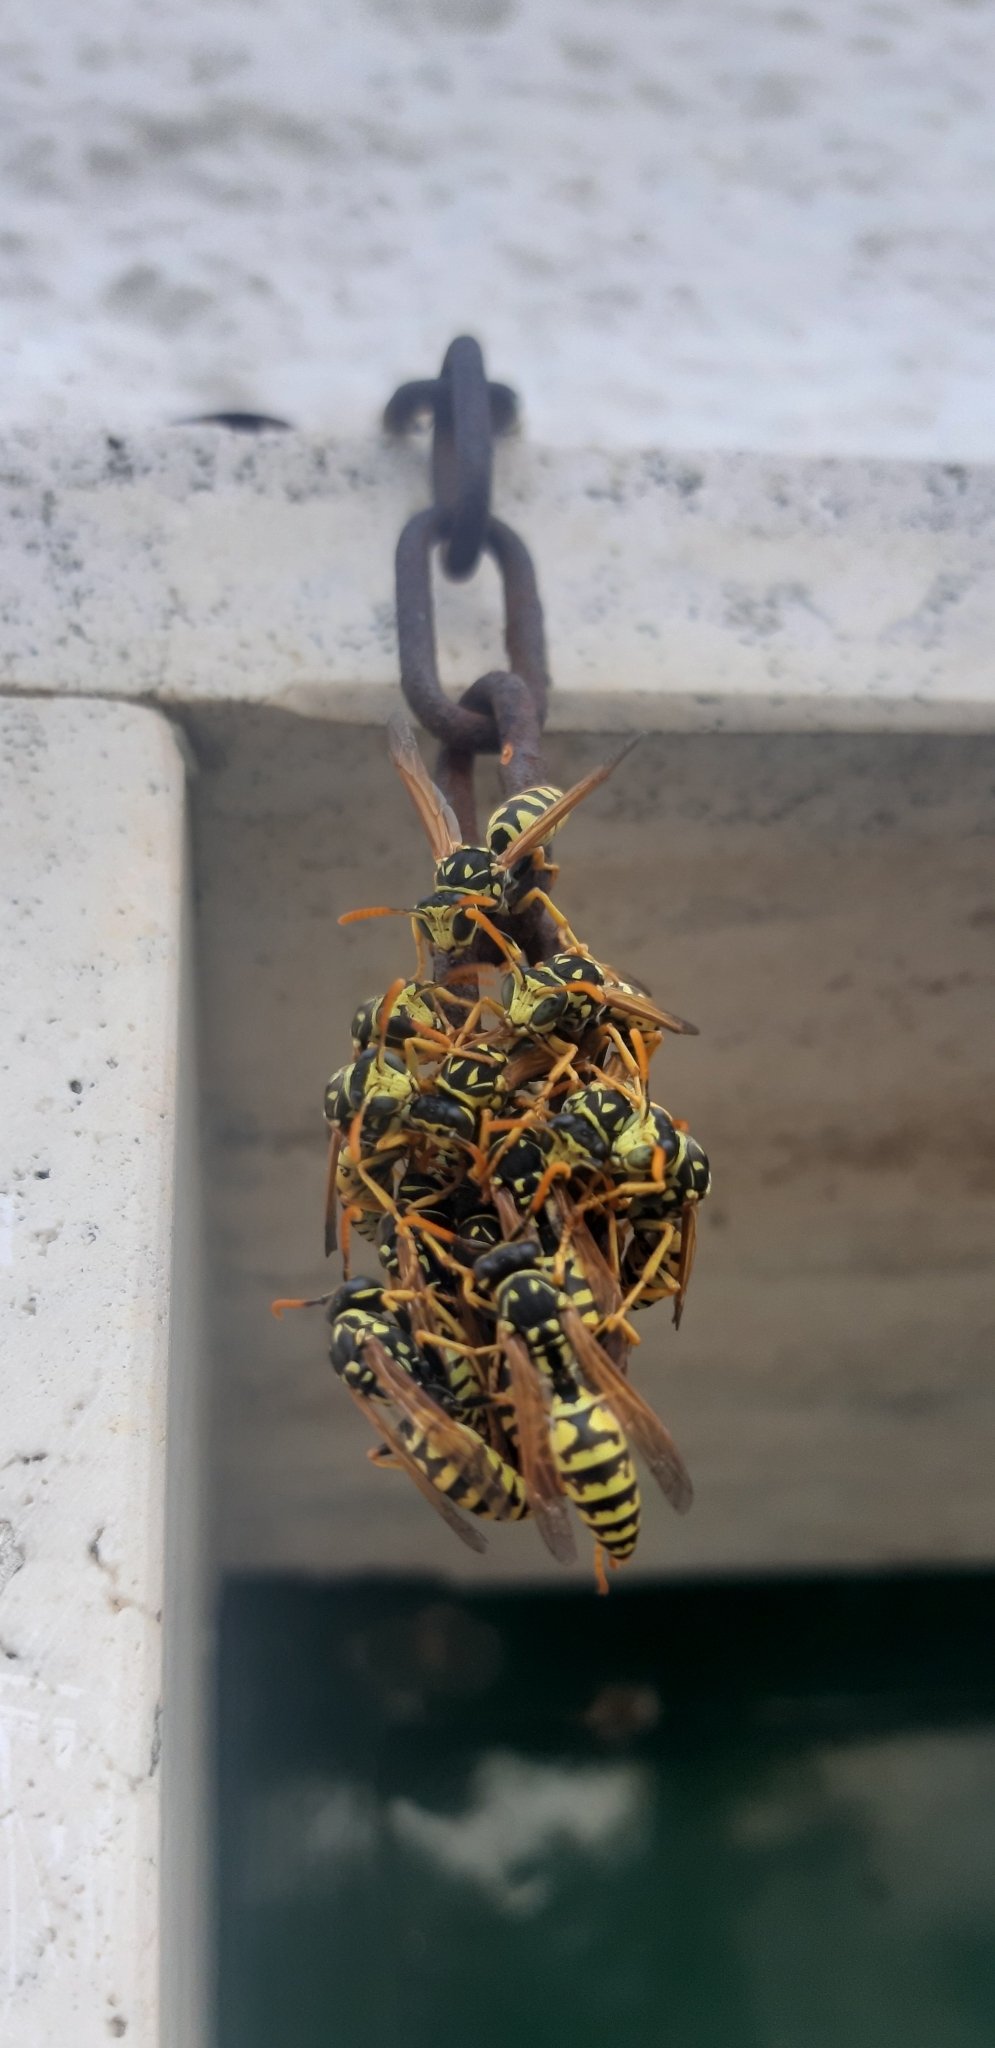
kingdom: Animalia
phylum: Arthropoda
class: Insecta
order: Hymenoptera
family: Eumenidae
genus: Polistes
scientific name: Polistes gallicus
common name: Paper wasp
